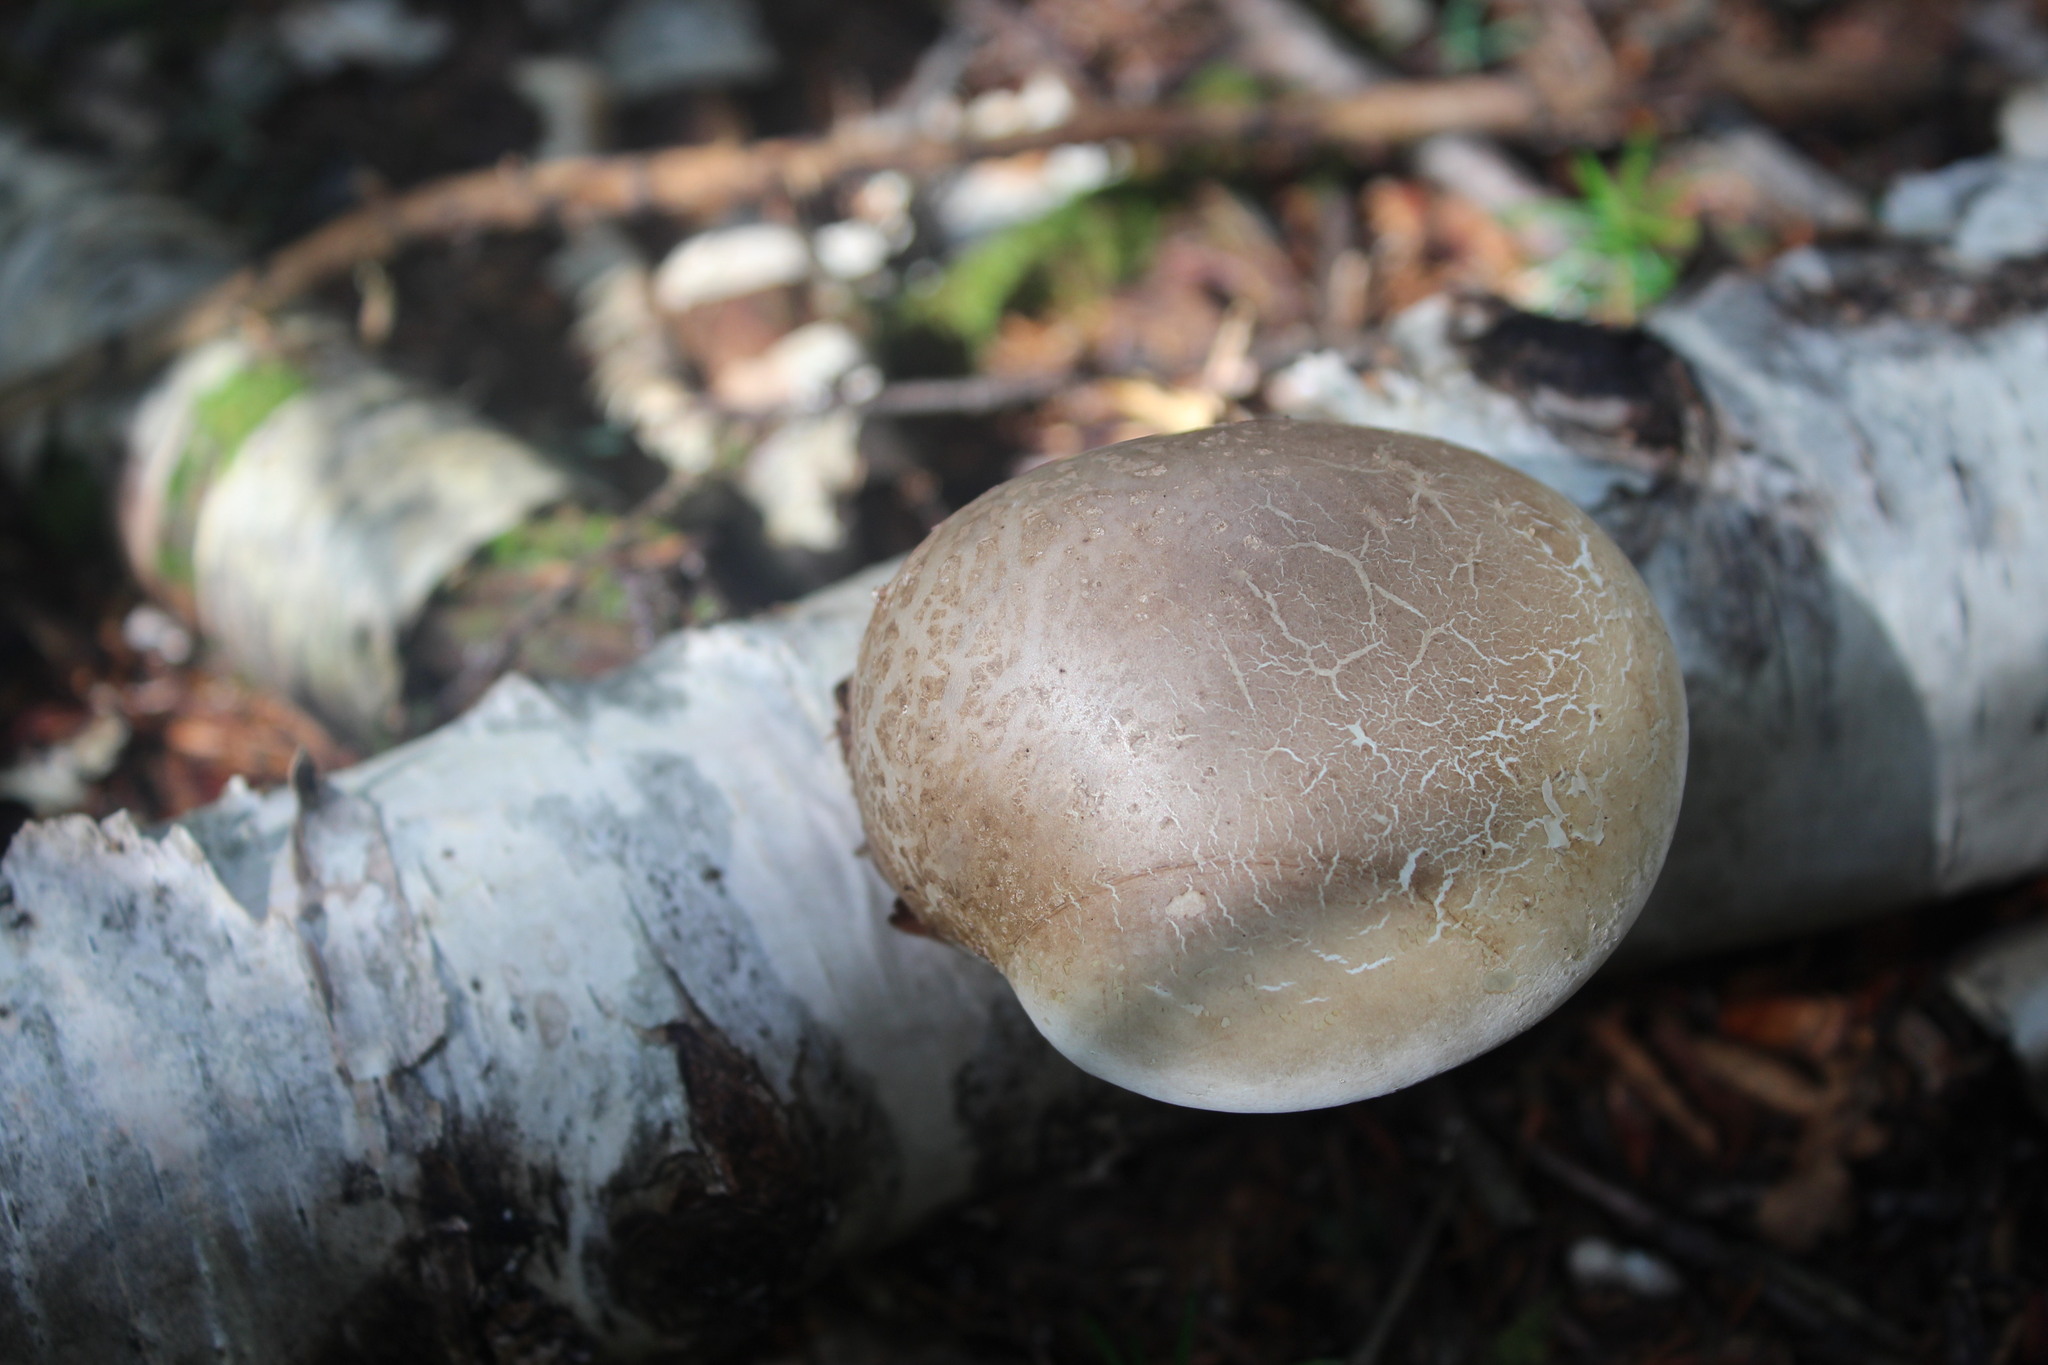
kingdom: Fungi
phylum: Basidiomycota
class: Agaricomycetes
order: Polyporales
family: Fomitopsidaceae
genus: Fomitopsis
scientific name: Fomitopsis betulina
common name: Birch polypore
